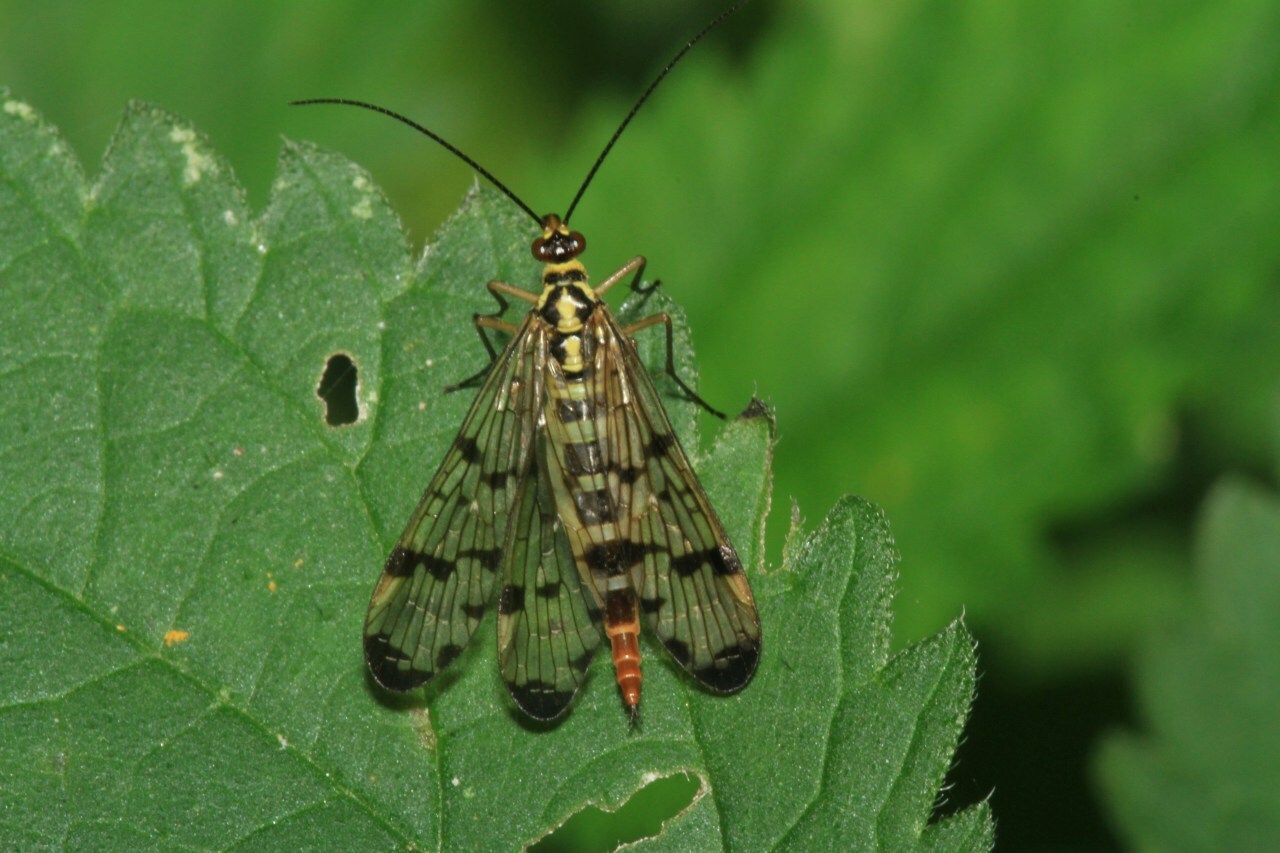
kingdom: Animalia
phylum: Arthropoda
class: Insecta
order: Mecoptera
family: Panorpidae
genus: Panorpa
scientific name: Panorpa germanica
